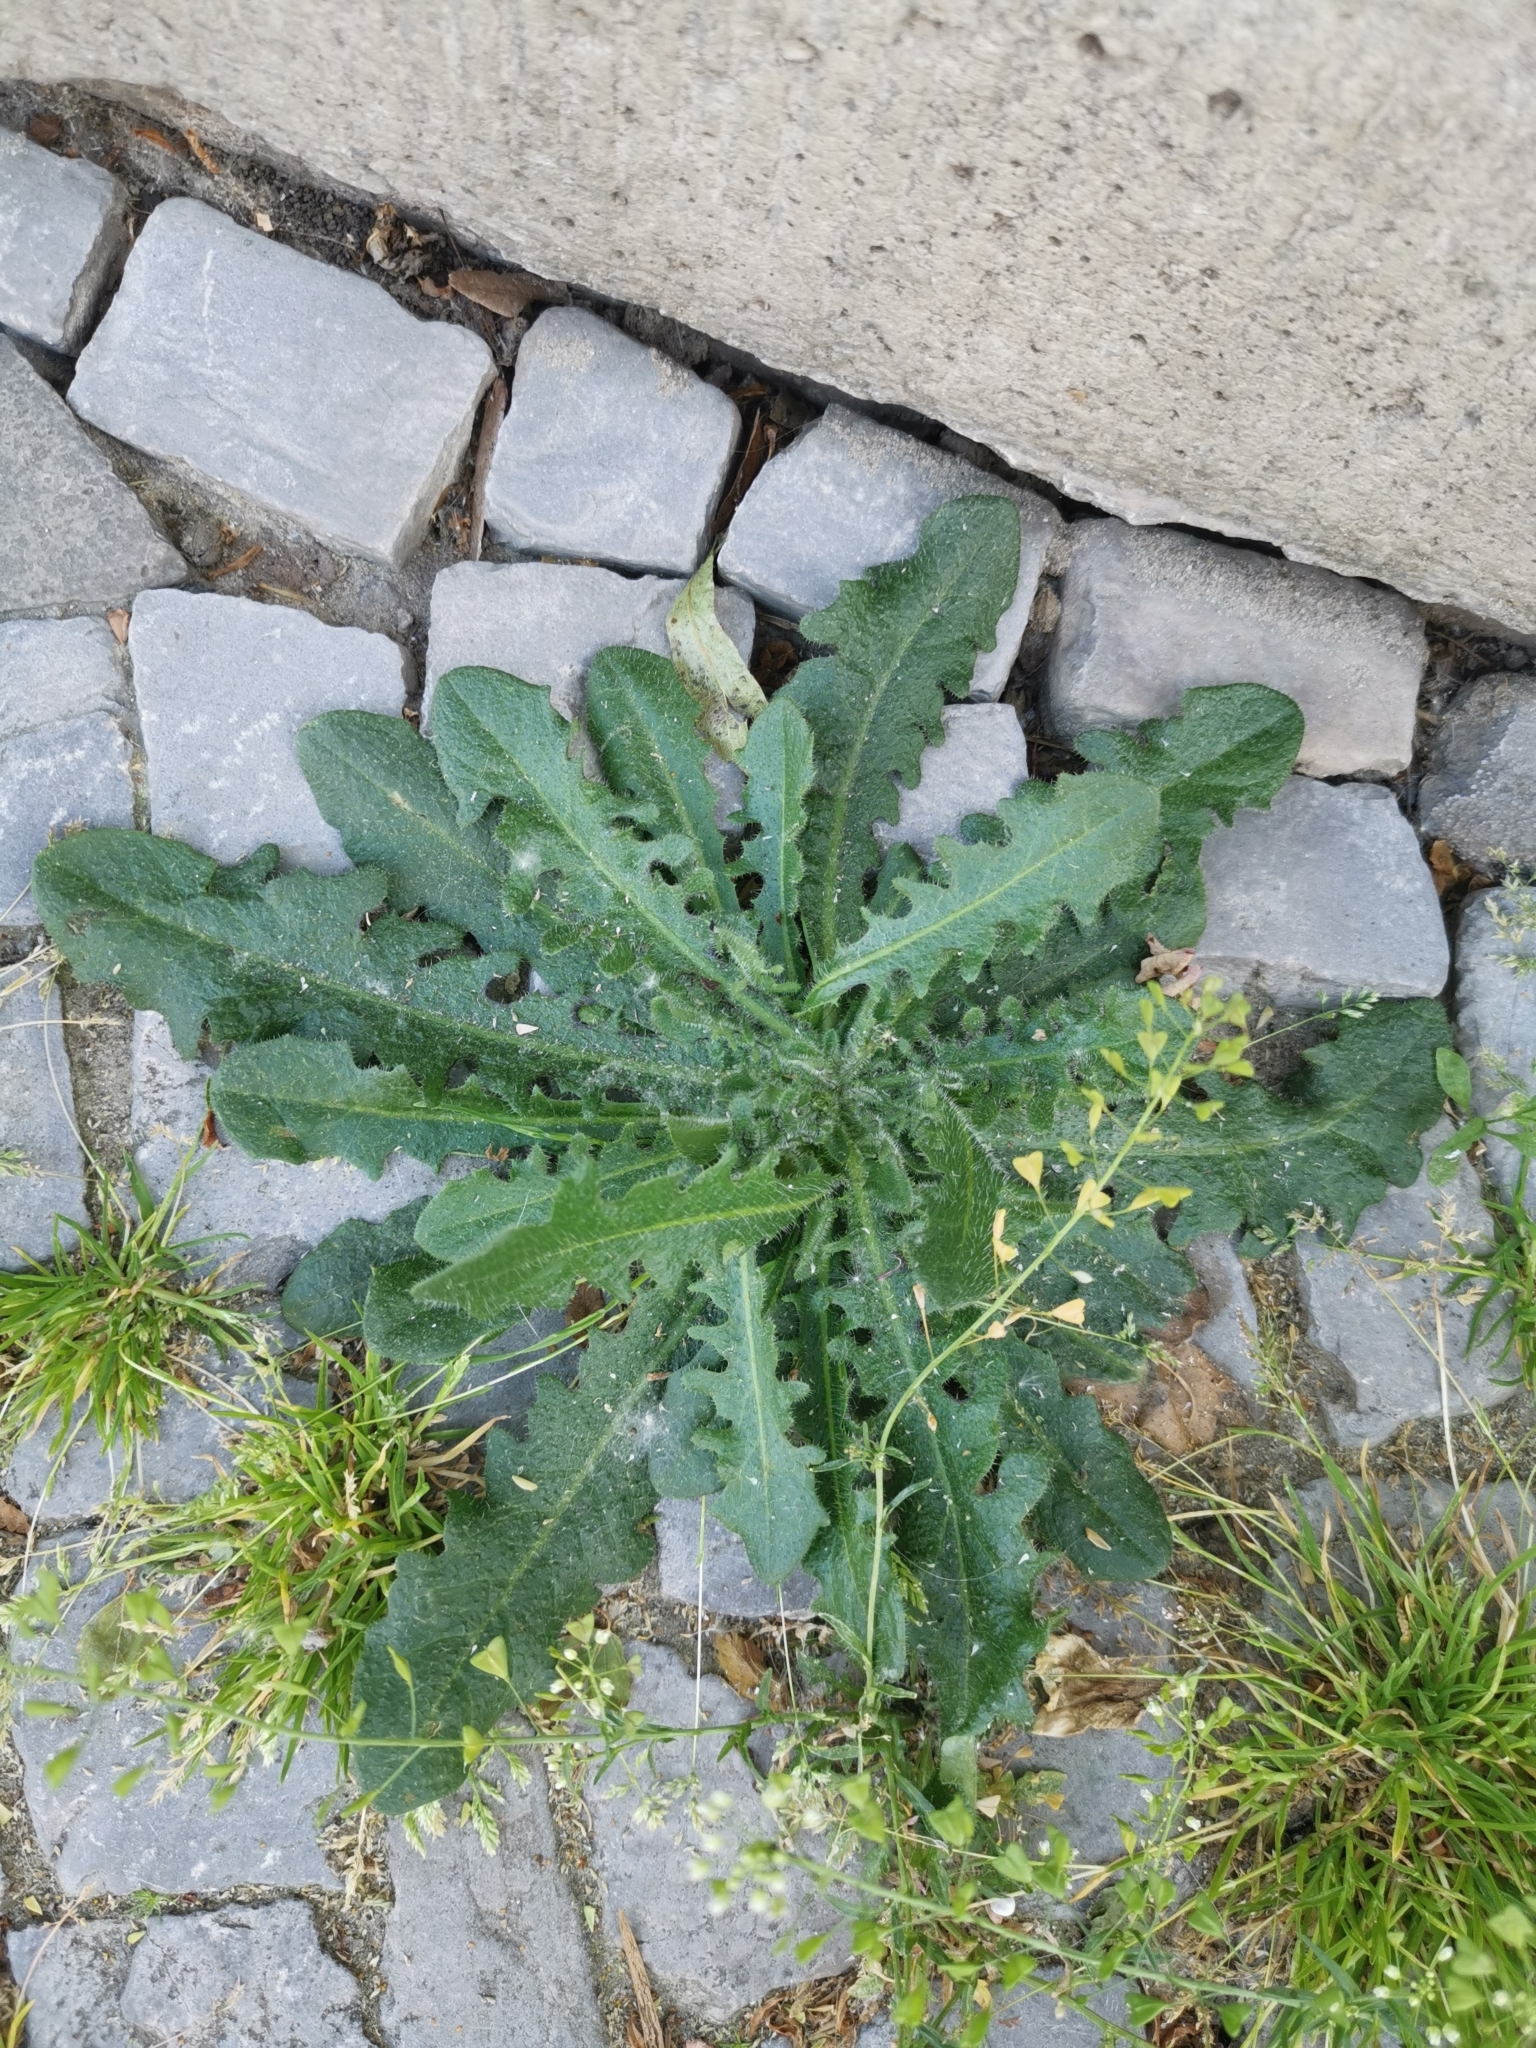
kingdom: Plantae
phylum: Tracheophyta
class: Magnoliopsida
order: Asterales
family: Asteraceae
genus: Hypochaeris
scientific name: Hypochaeris radicata
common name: Flatweed
